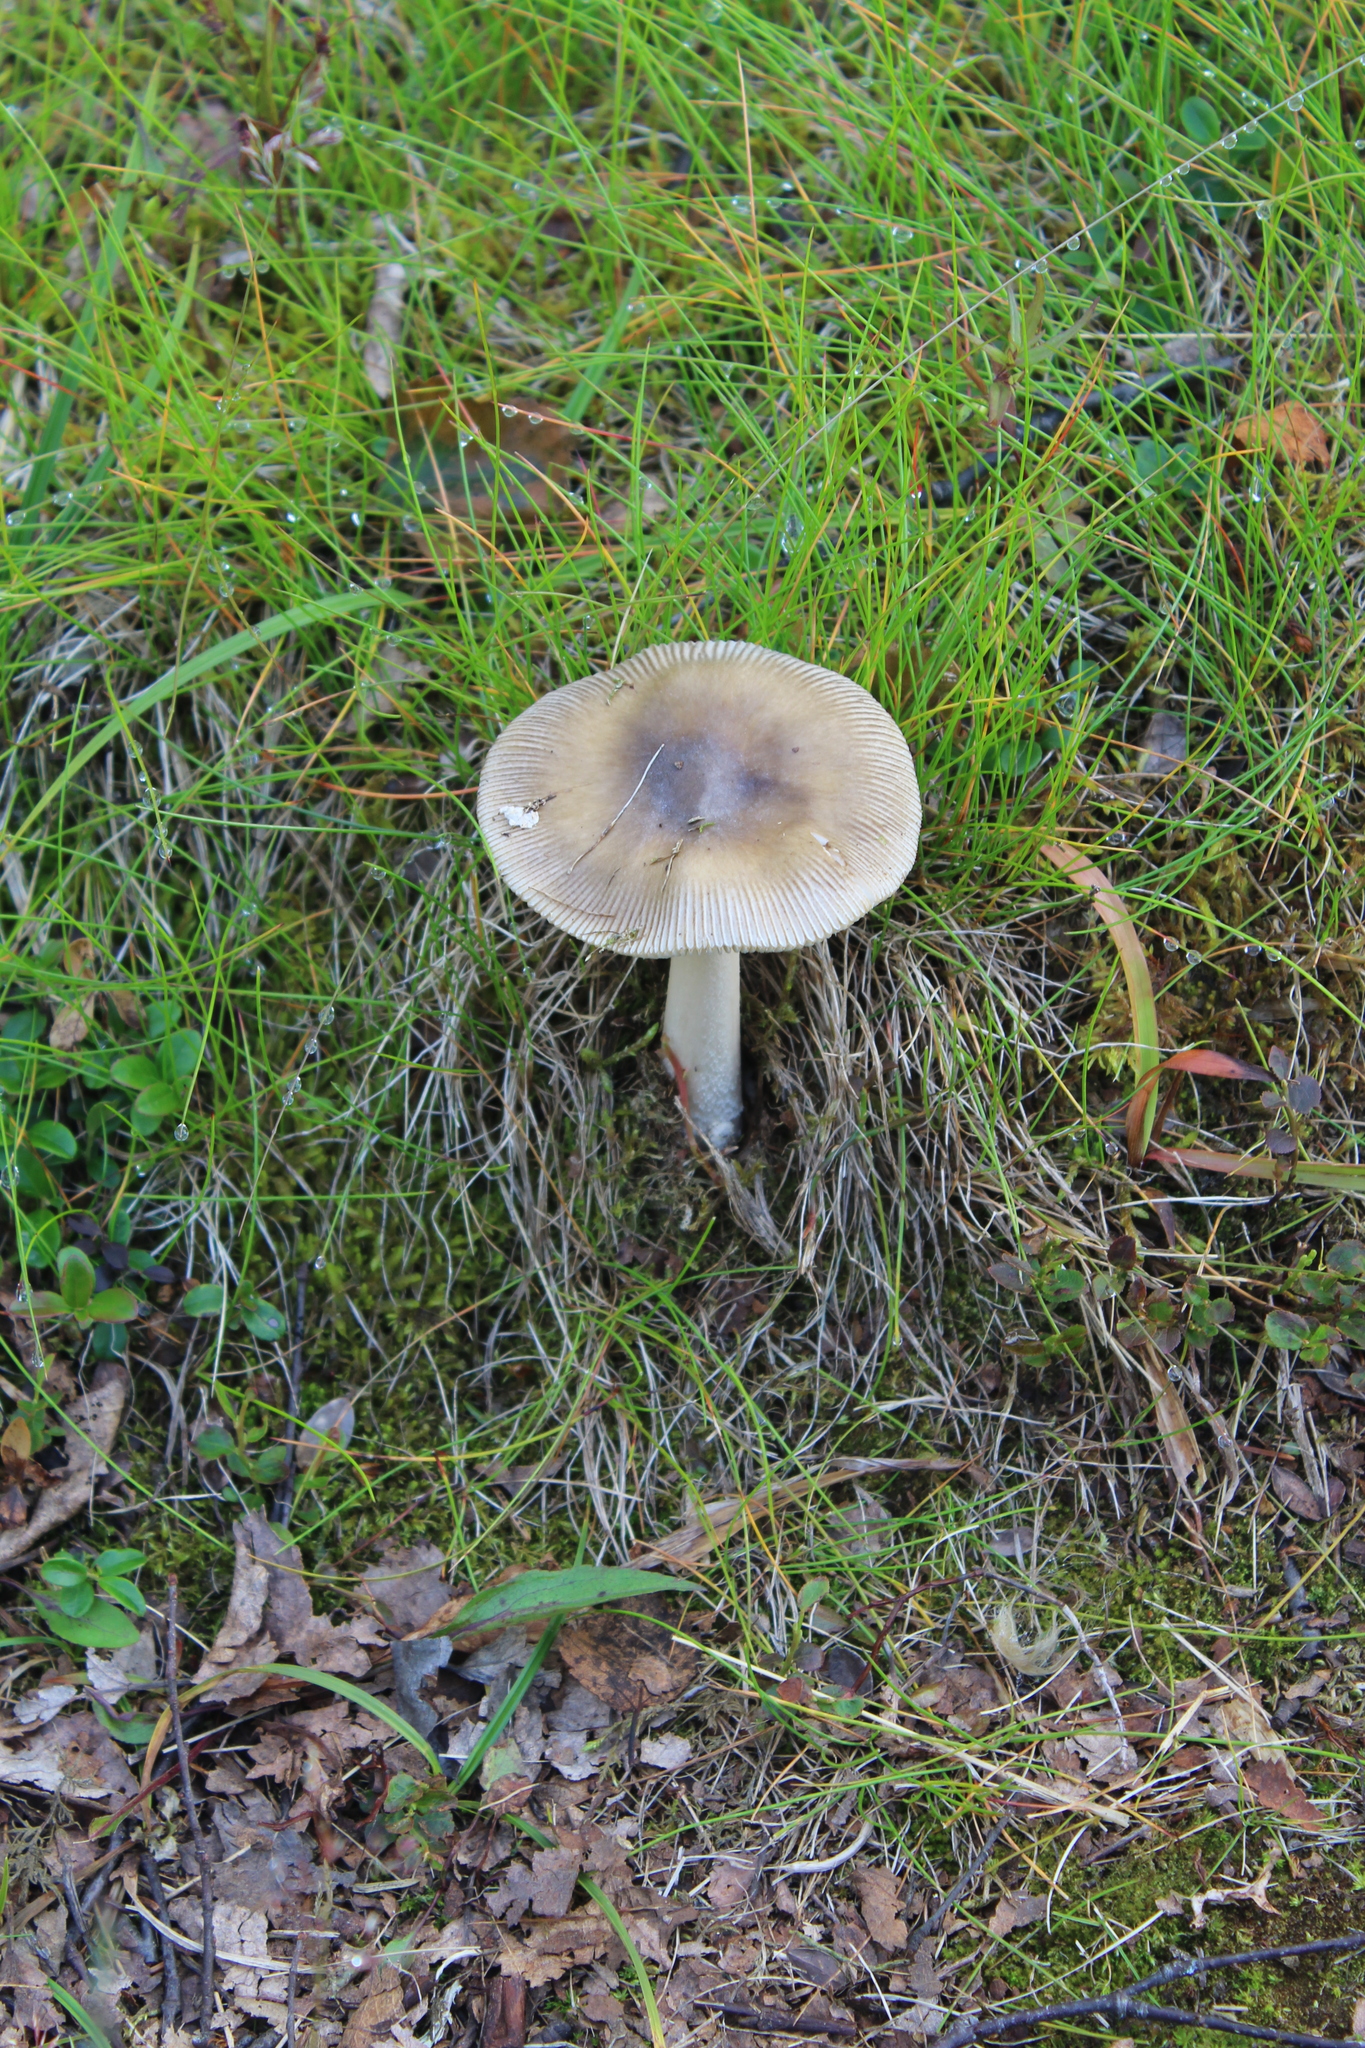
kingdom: Fungi
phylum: Basidiomycota
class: Agaricomycetes
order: Agaricales
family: Amanitaceae
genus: Amanita
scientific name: Amanita vaginata
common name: Grisette
